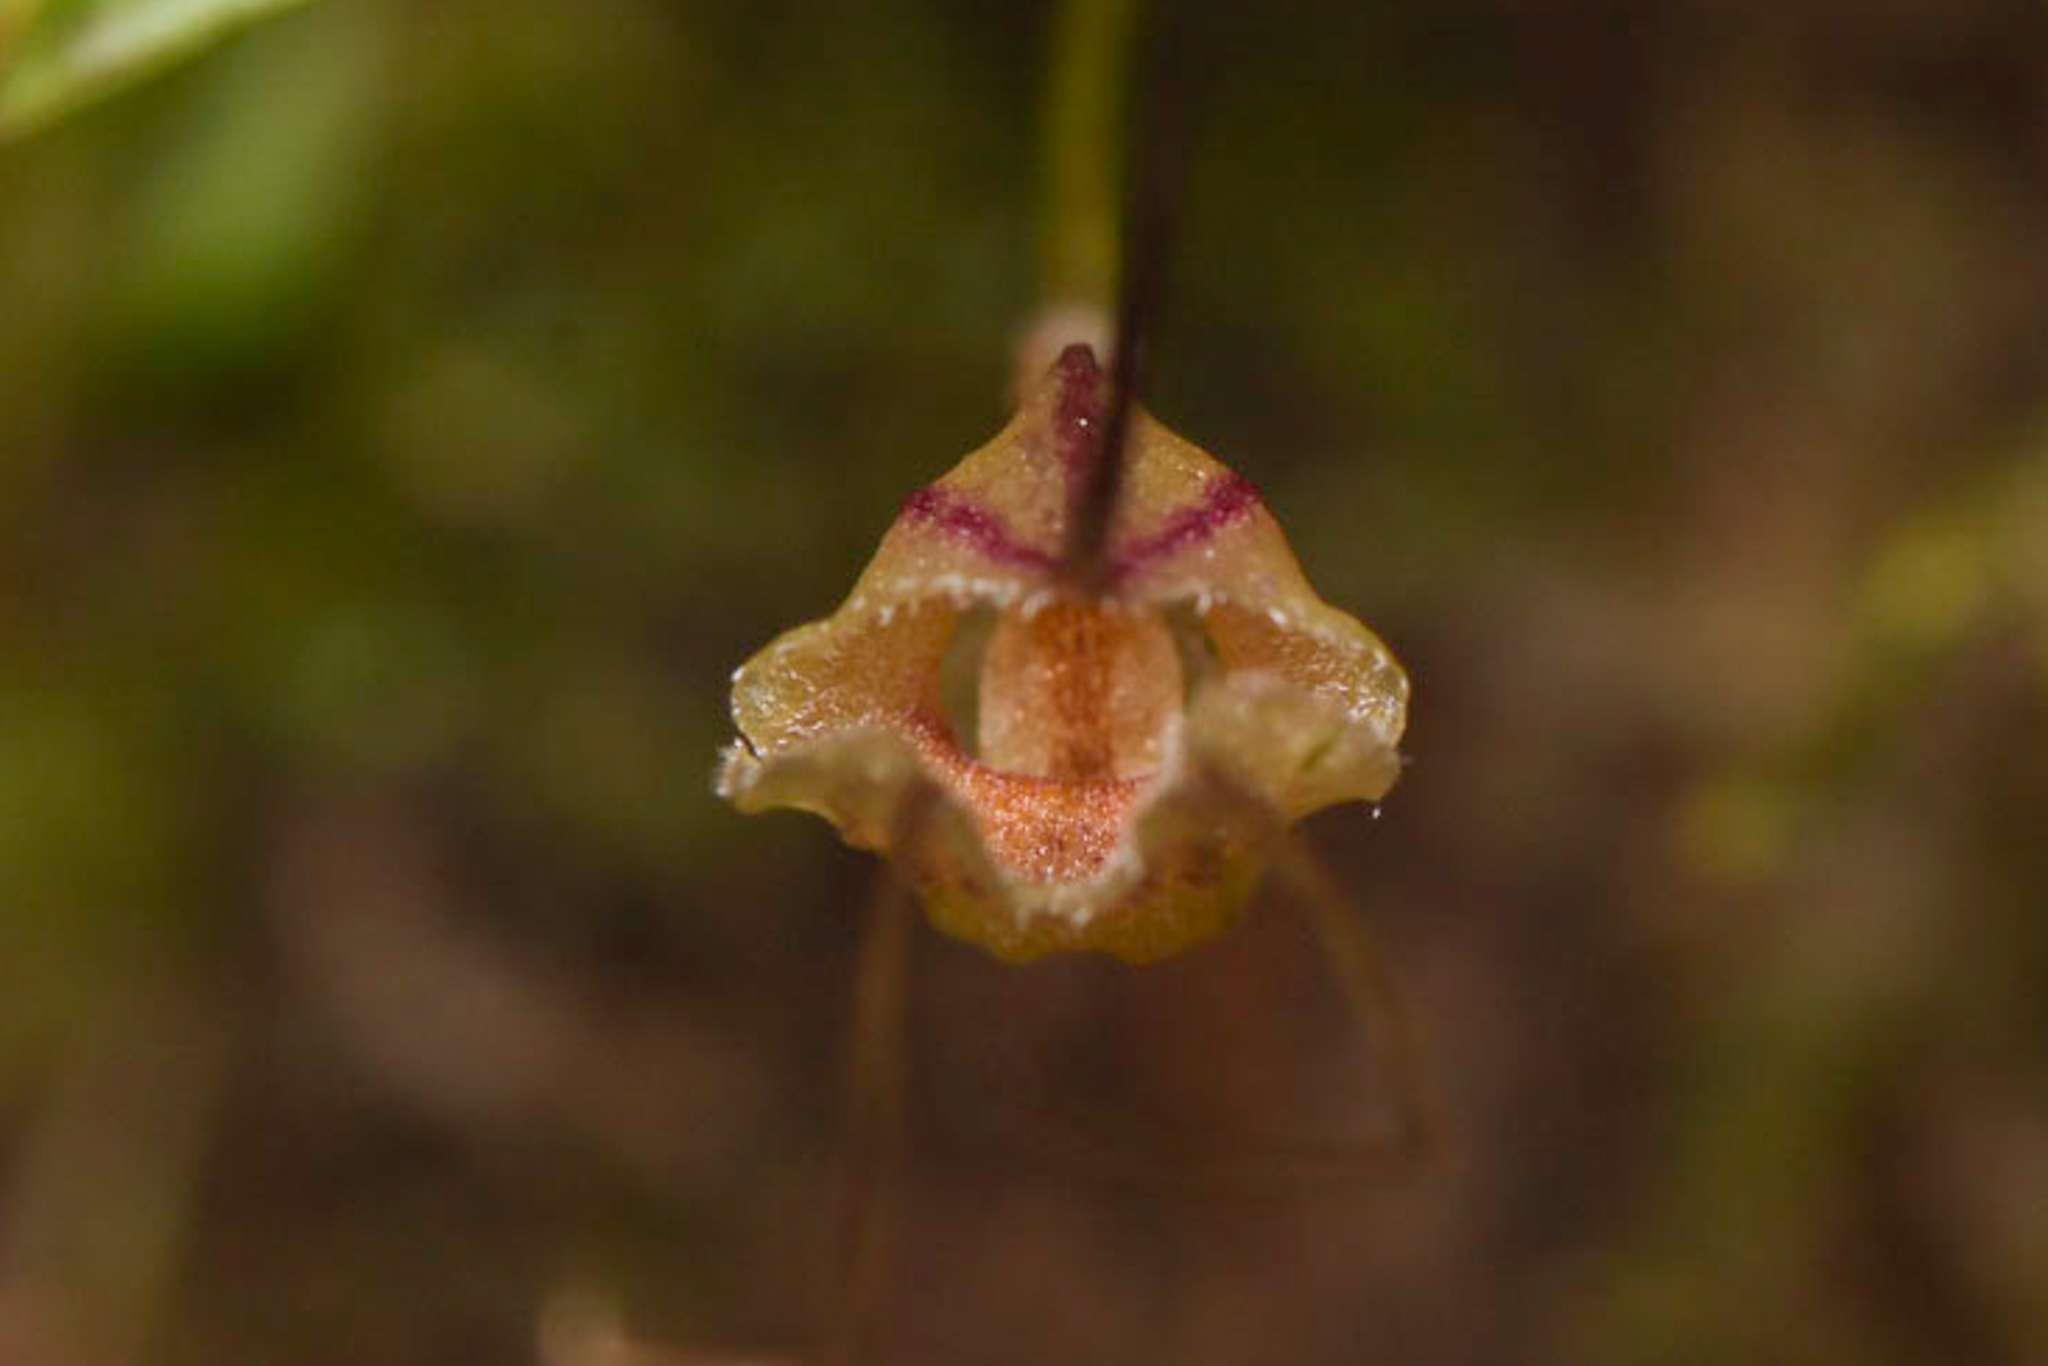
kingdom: Plantae
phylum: Tracheophyta
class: Liliopsida
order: Asparagales
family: Orchidaceae
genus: Masdevallia
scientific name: Masdevallia nidifica
